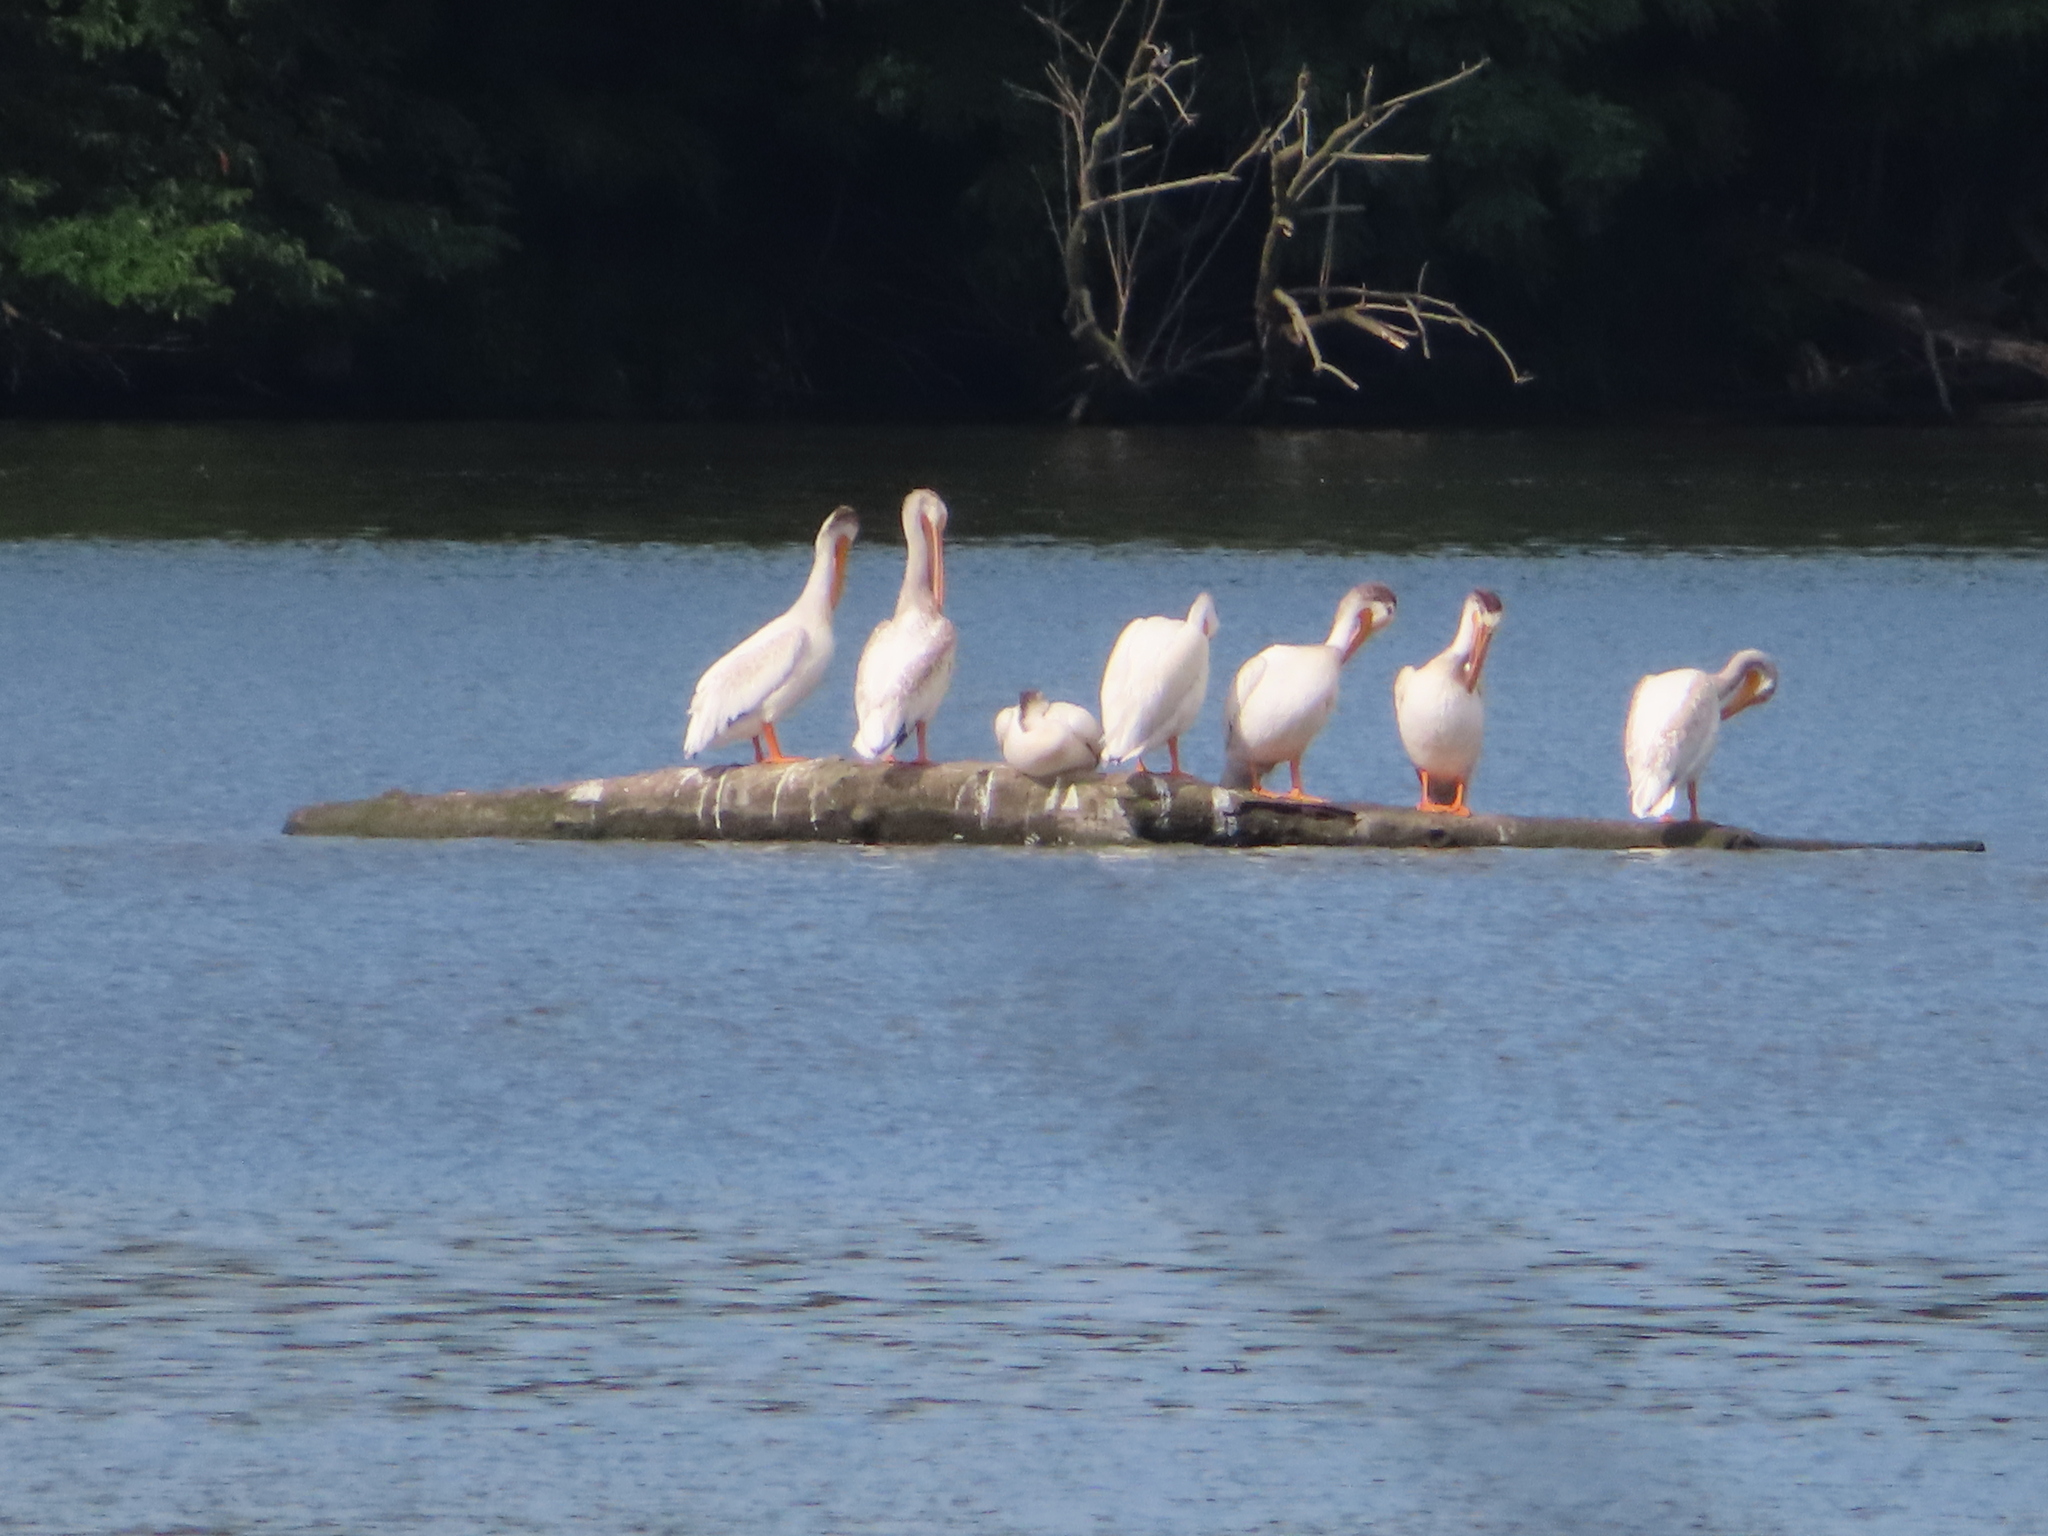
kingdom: Animalia
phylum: Chordata
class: Aves
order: Pelecaniformes
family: Pelecanidae
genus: Pelecanus
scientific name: Pelecanus erythrorhynchos
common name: American white pelican
